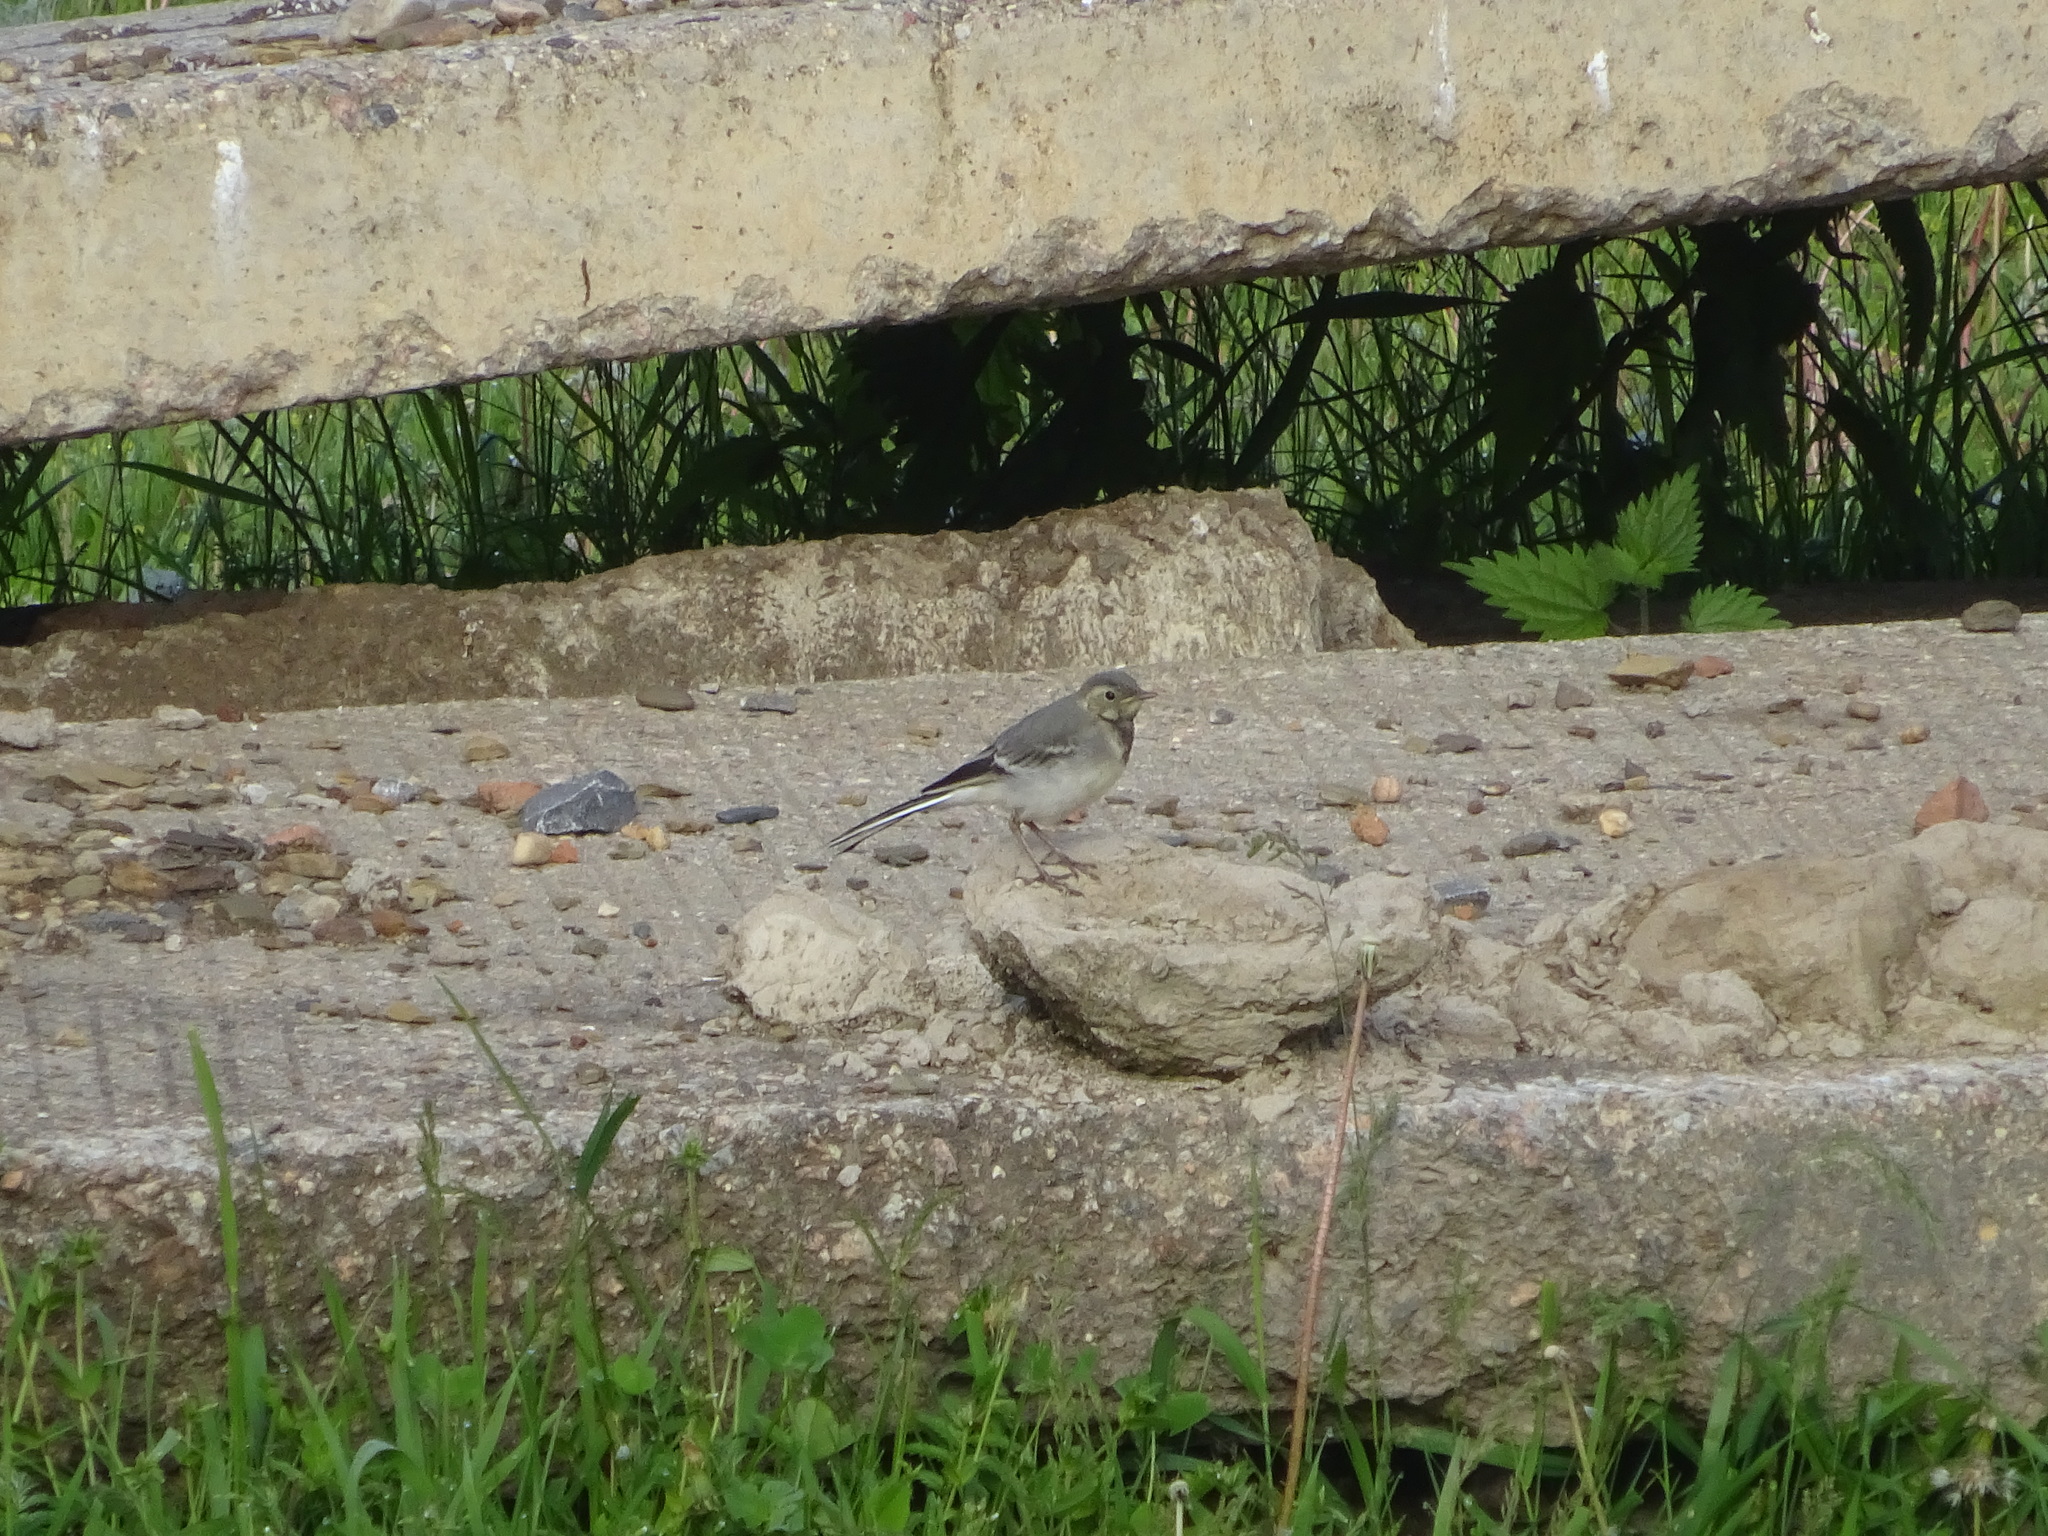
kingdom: Animalia
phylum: Chordata
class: Aves
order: Passeriformes
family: Motacillidae
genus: Motacilla
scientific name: Motacilla alba
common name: White wagtail
